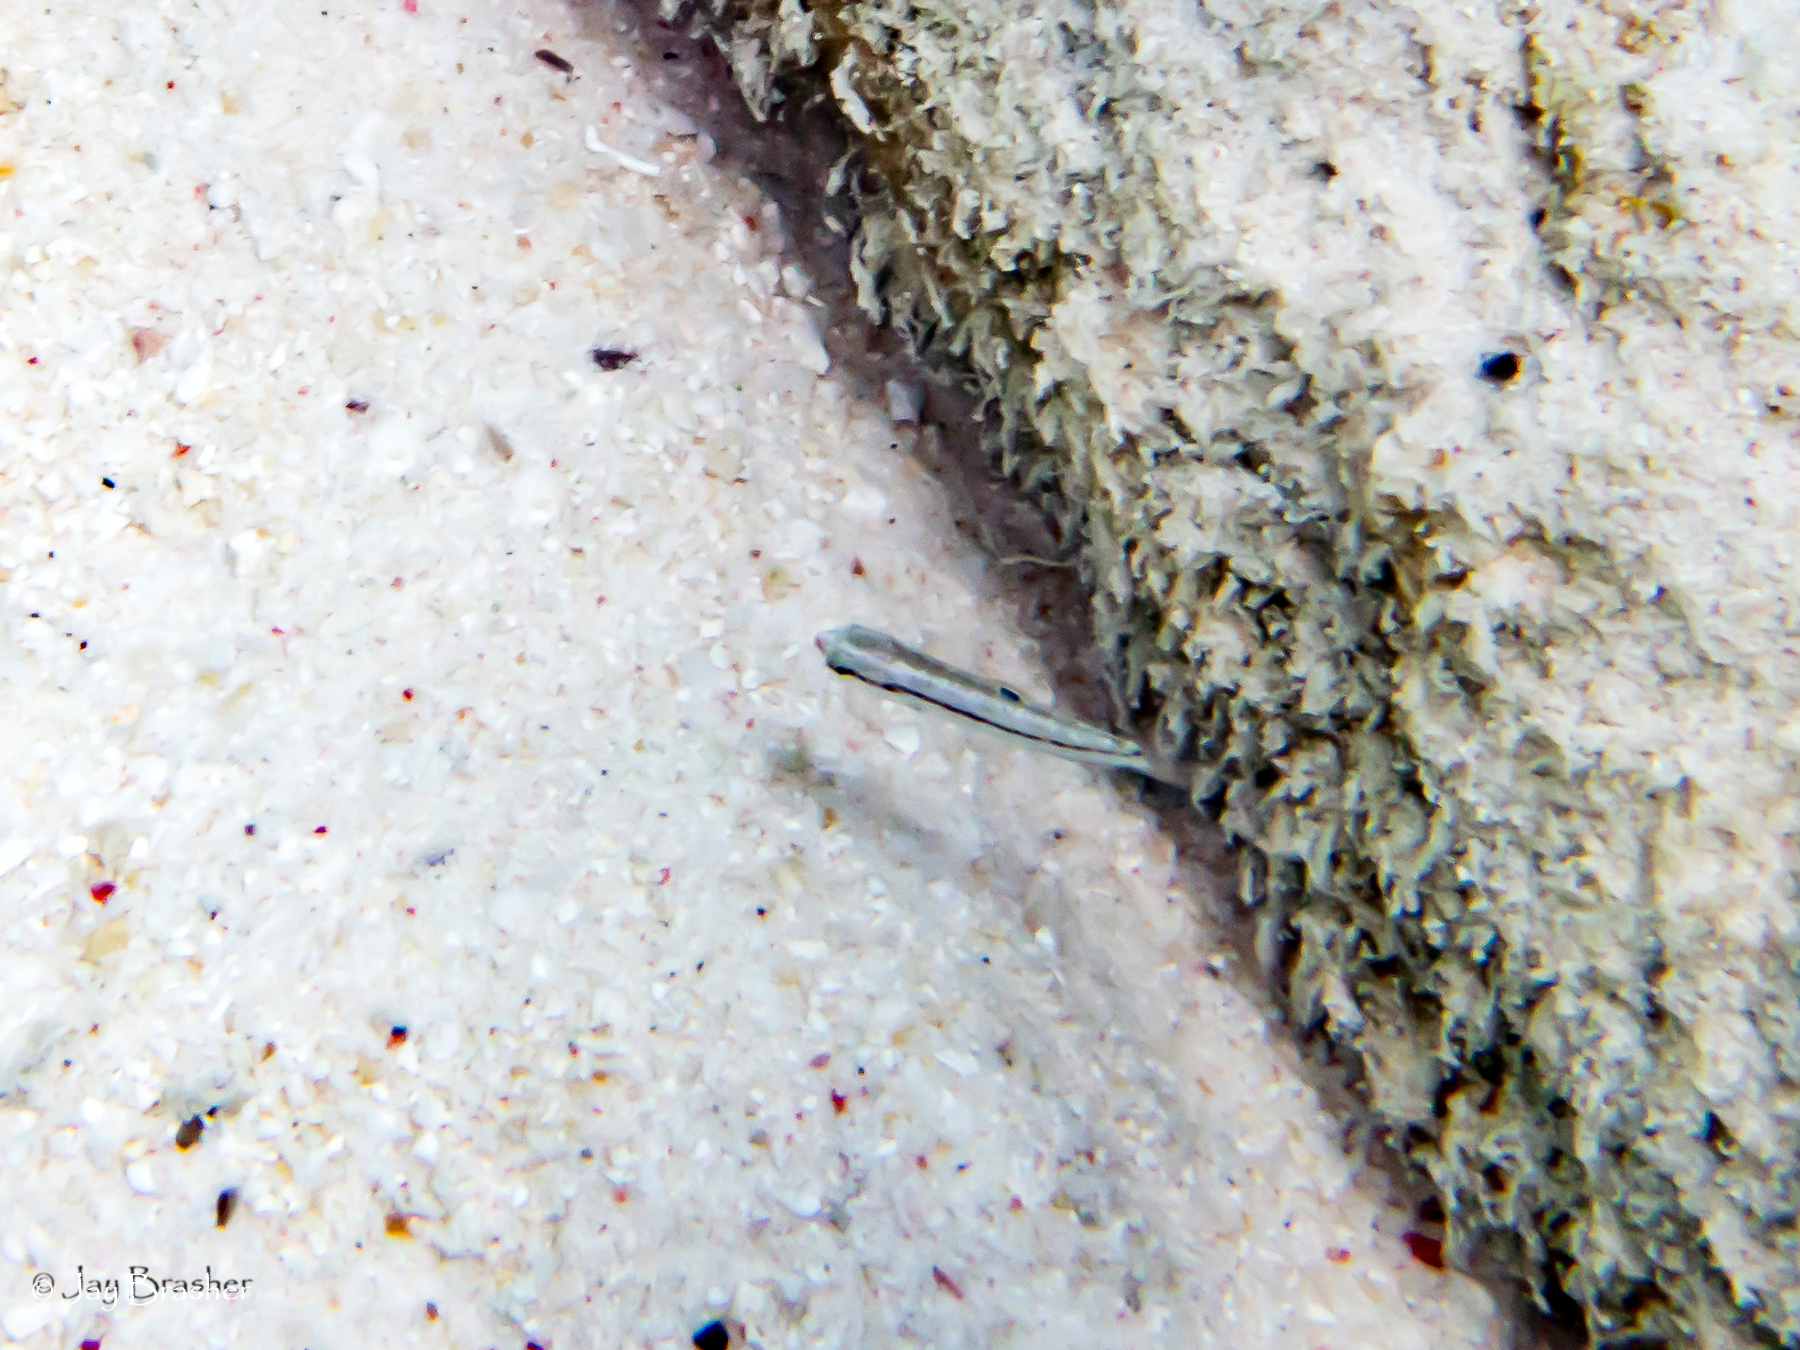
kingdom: Animalia
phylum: Chordata
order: Perciformes
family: Labridae
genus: Halichoeres
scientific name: Halichoeres bivittatus
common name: Slippery dick
